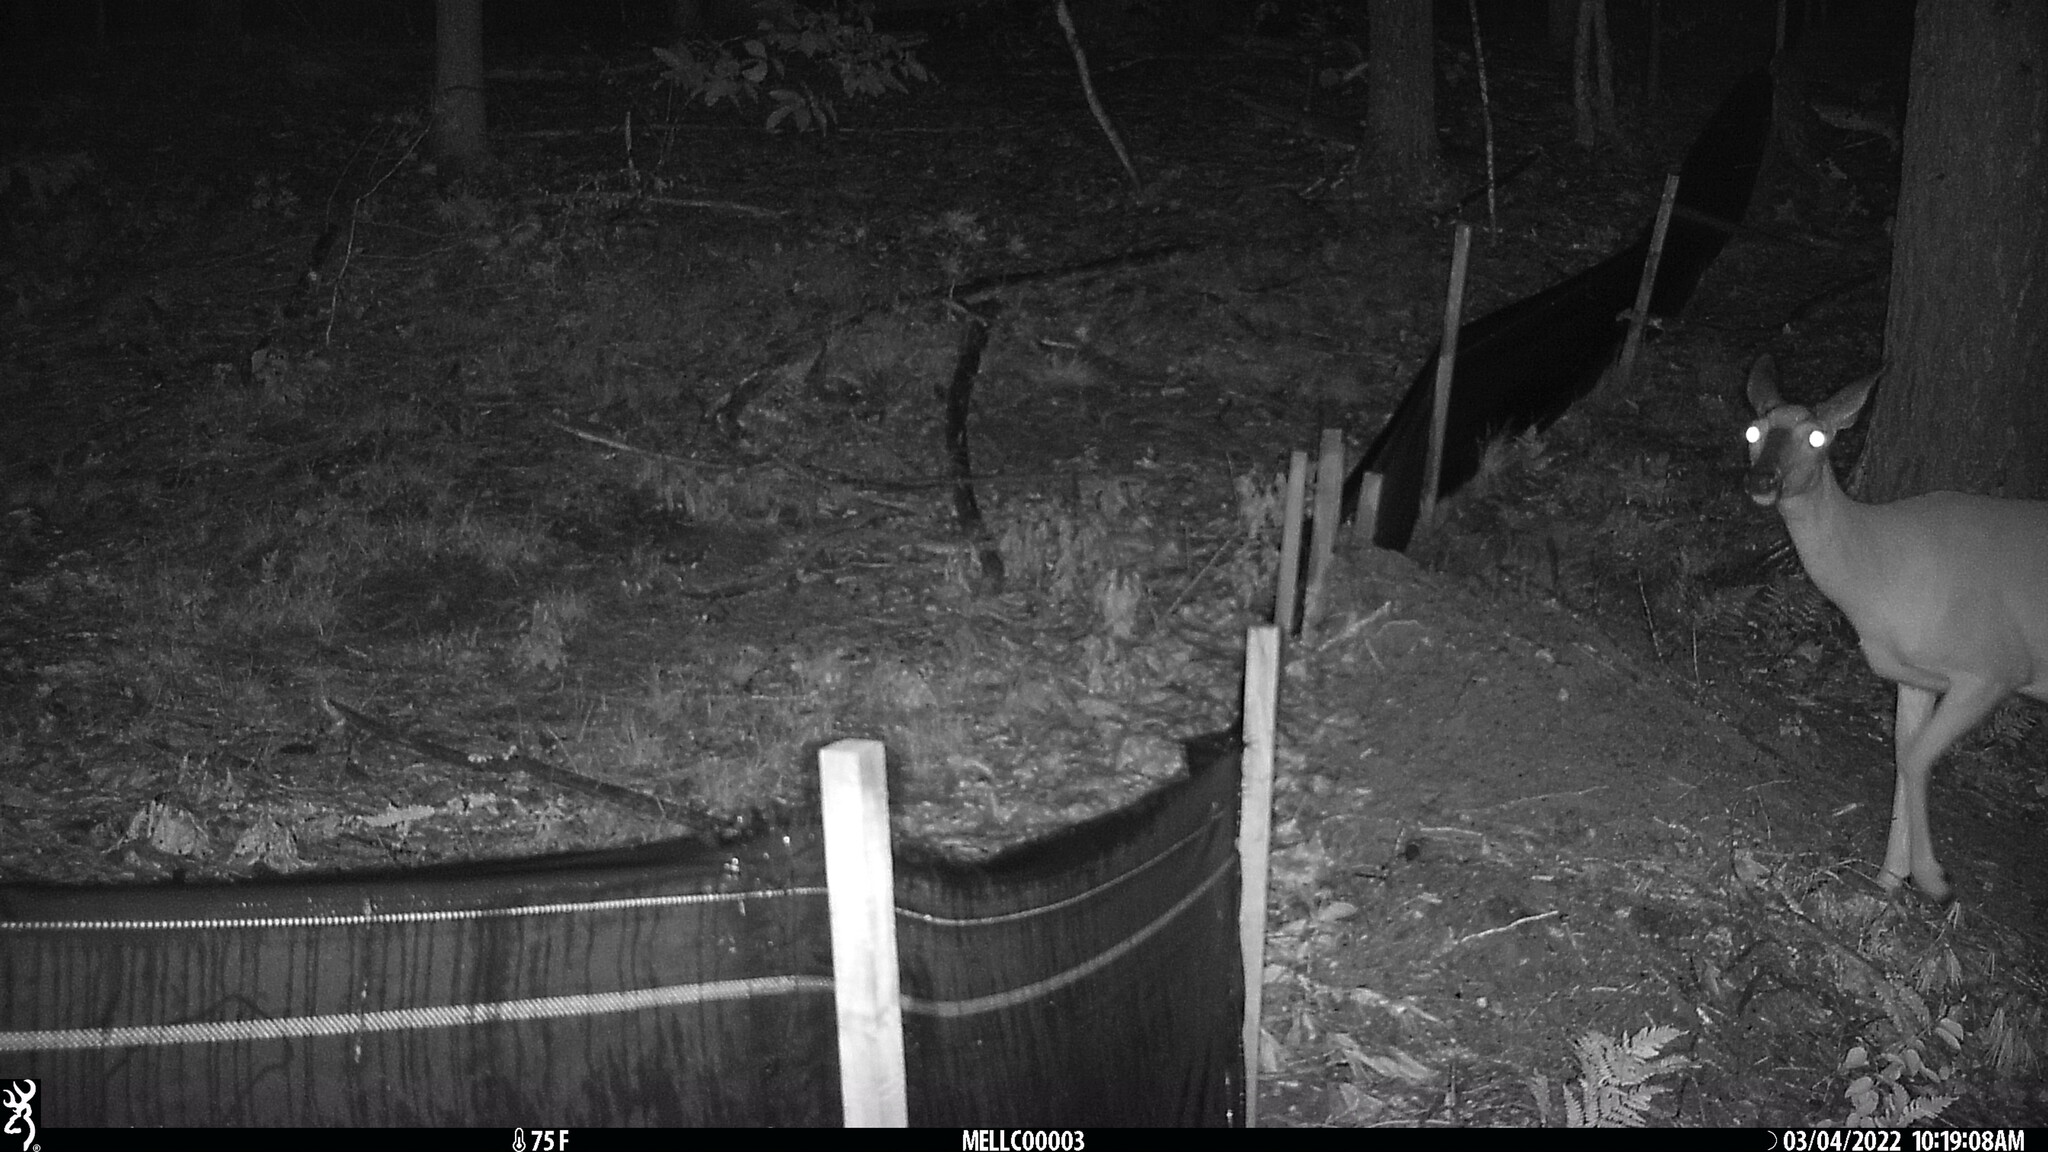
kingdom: Animalia
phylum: Chordata
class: Mammalia
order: Artiodactyla
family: Cervidae
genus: Odocoileus
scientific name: Odocoileus virginianus
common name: White-tailed deer
